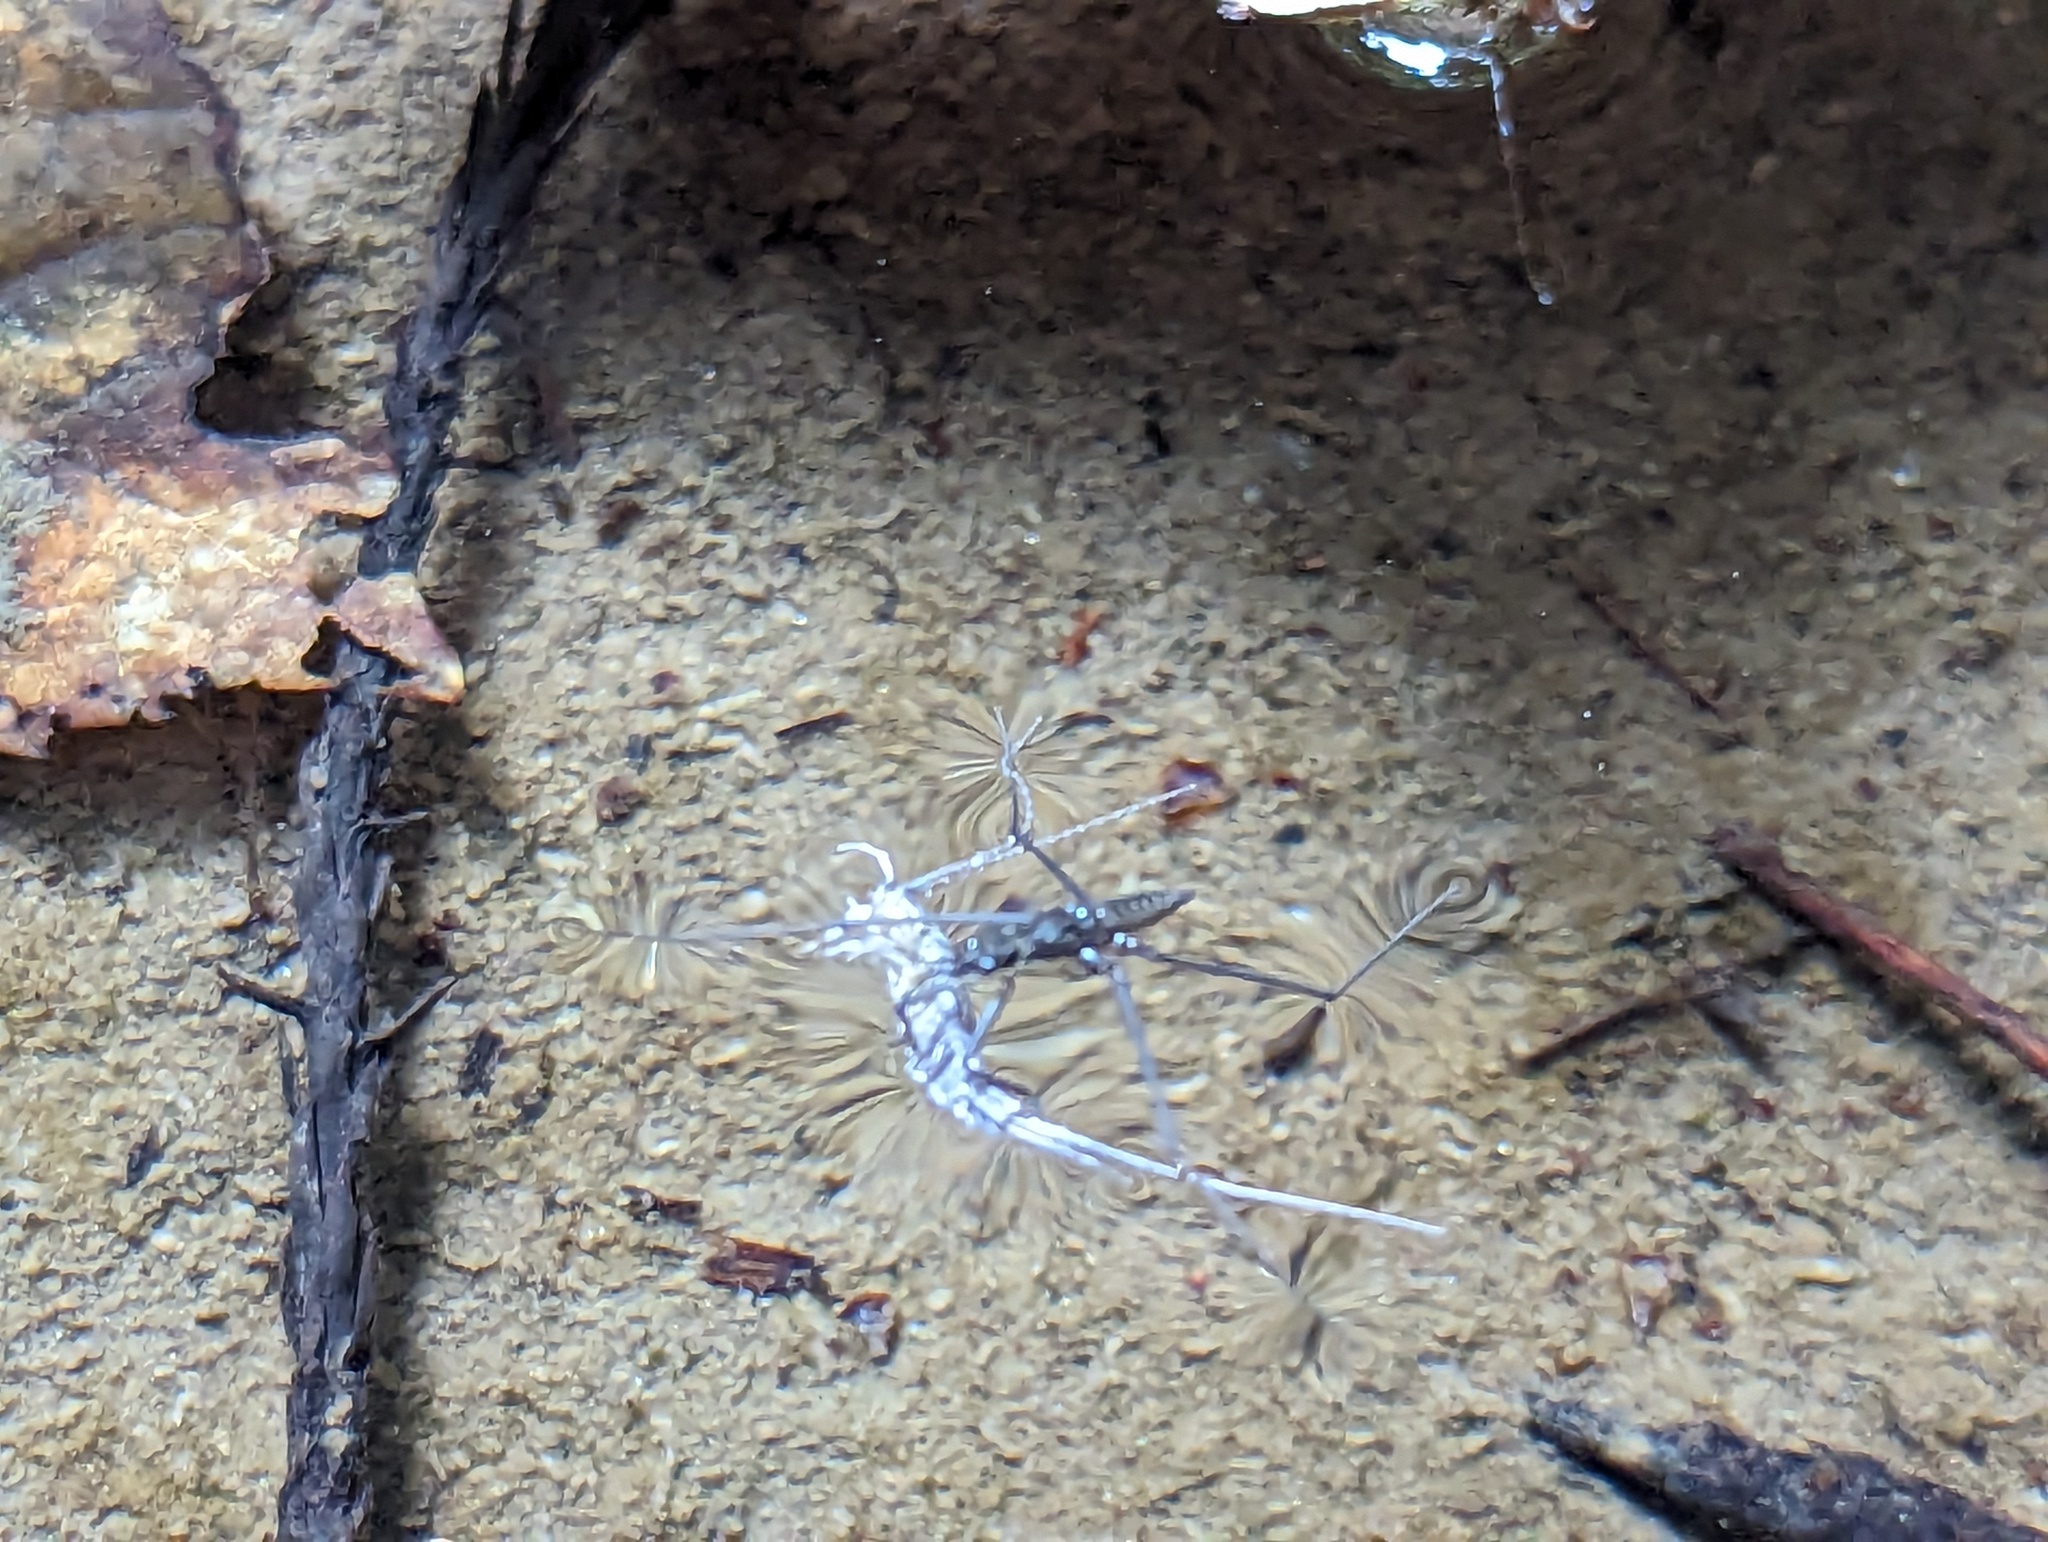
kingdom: Animalia
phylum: Arthropoda
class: Insecta
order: Hemiptera
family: Gerridae
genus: Aquarius
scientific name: Aquarius remigis
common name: Common water strider
